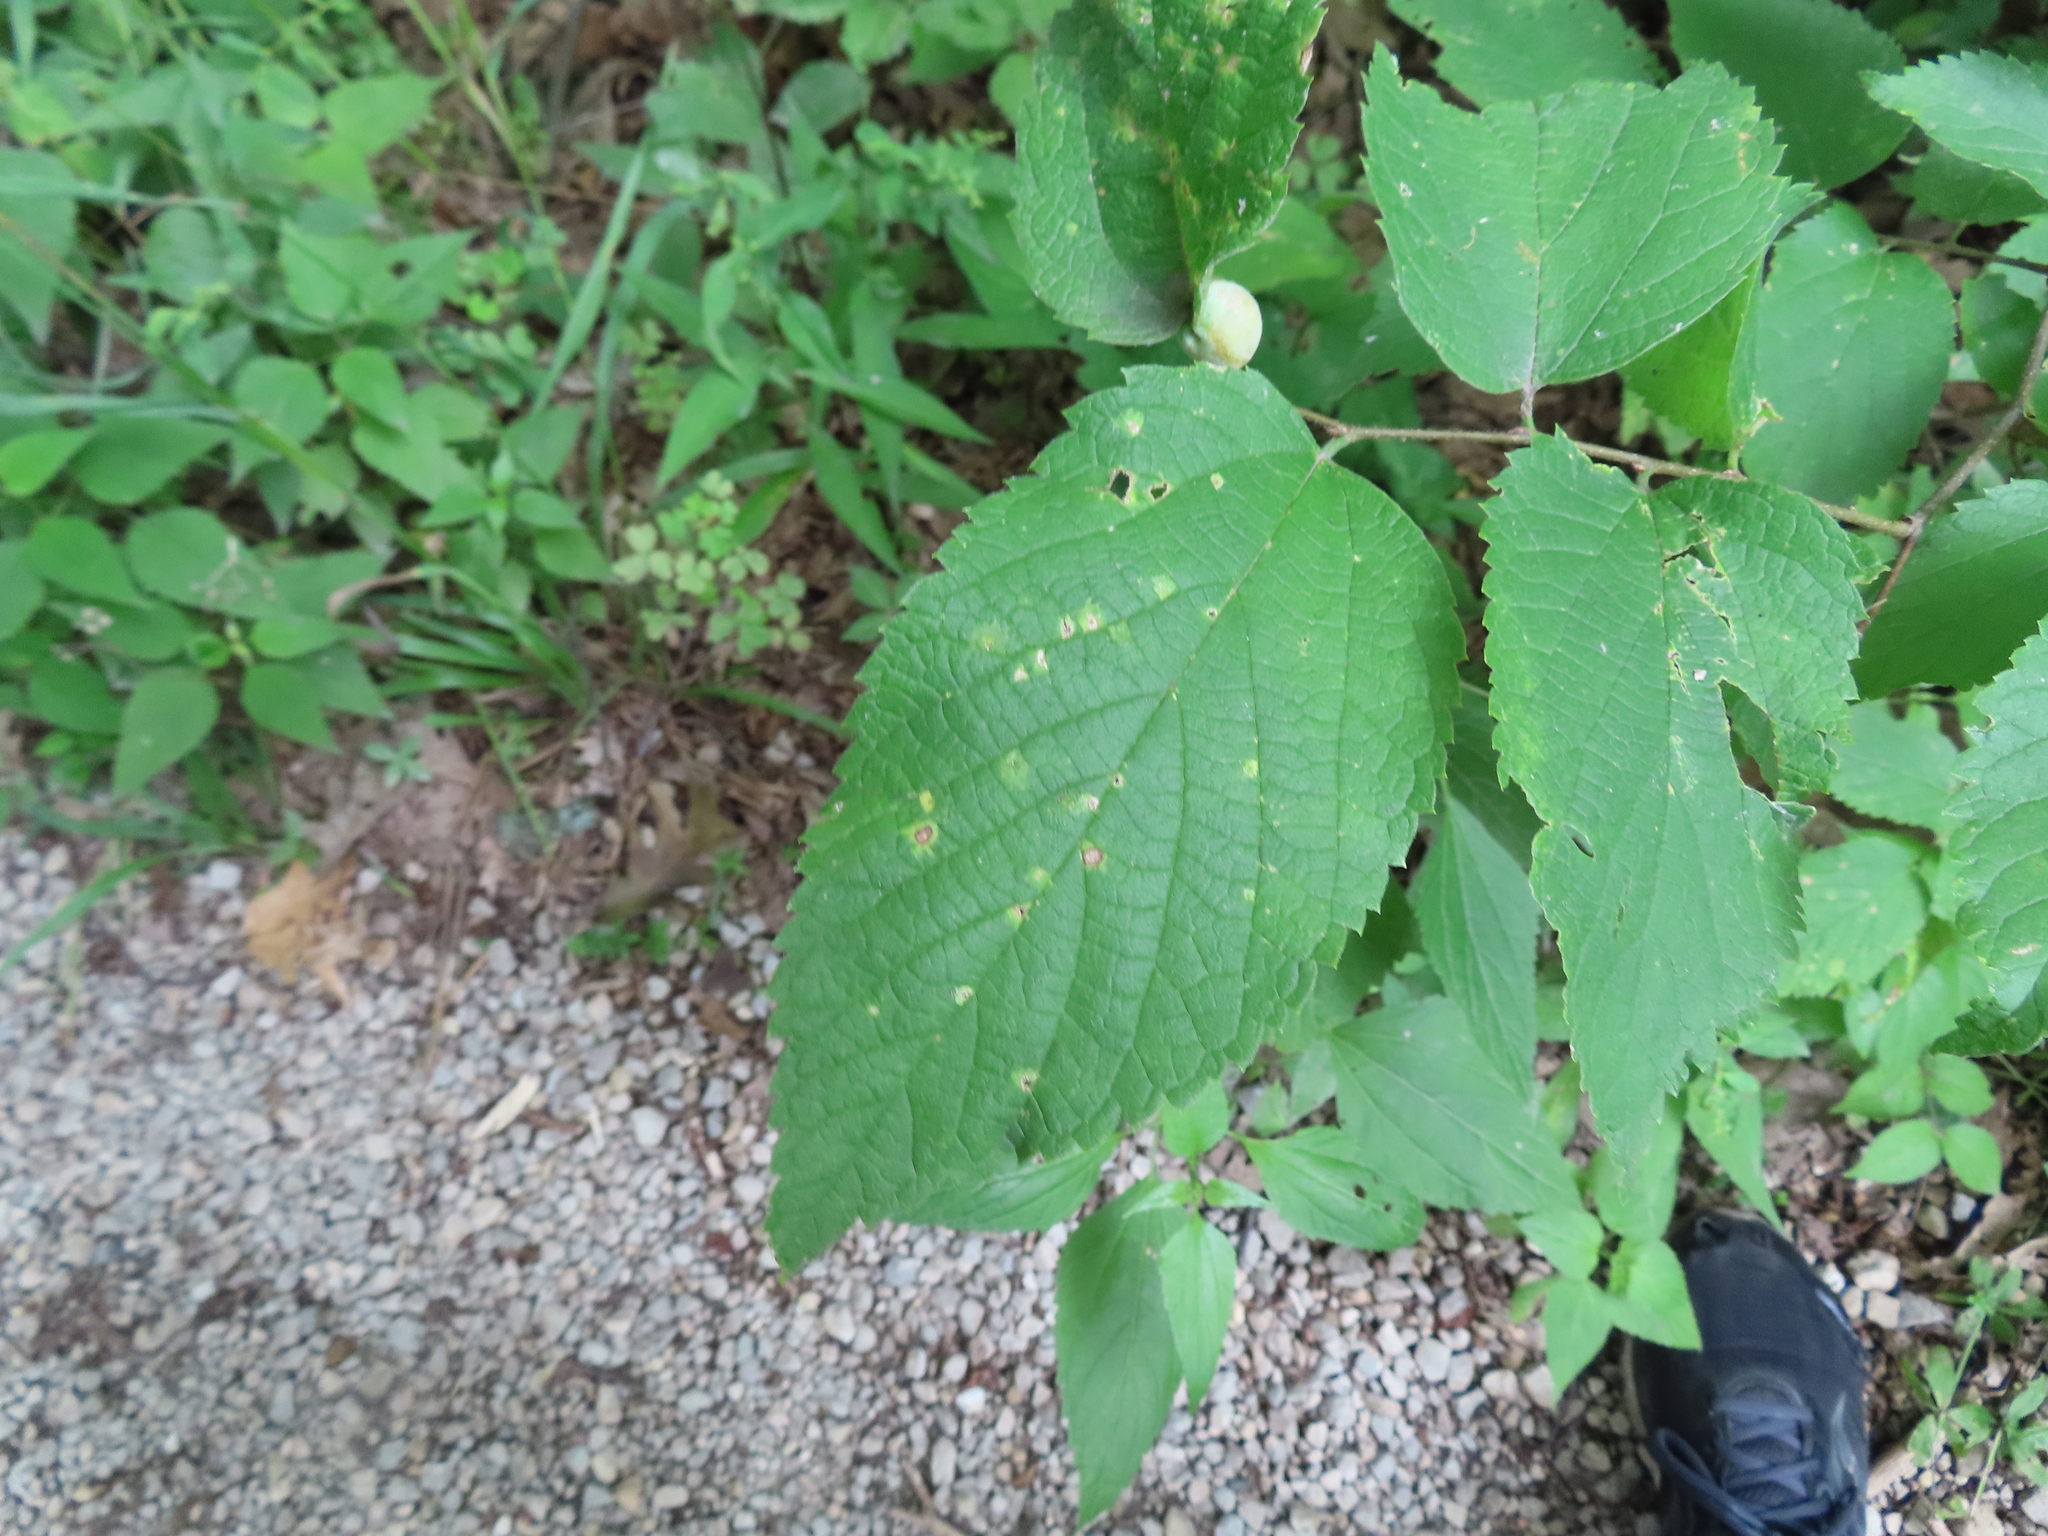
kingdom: Animalia
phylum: Arthropoda
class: Insecta
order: Hemiptera
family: Aphalaridae
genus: Pachypsylla
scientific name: Pachypsylla celtidisvesicula
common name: Hackberry blister gall psyllid
